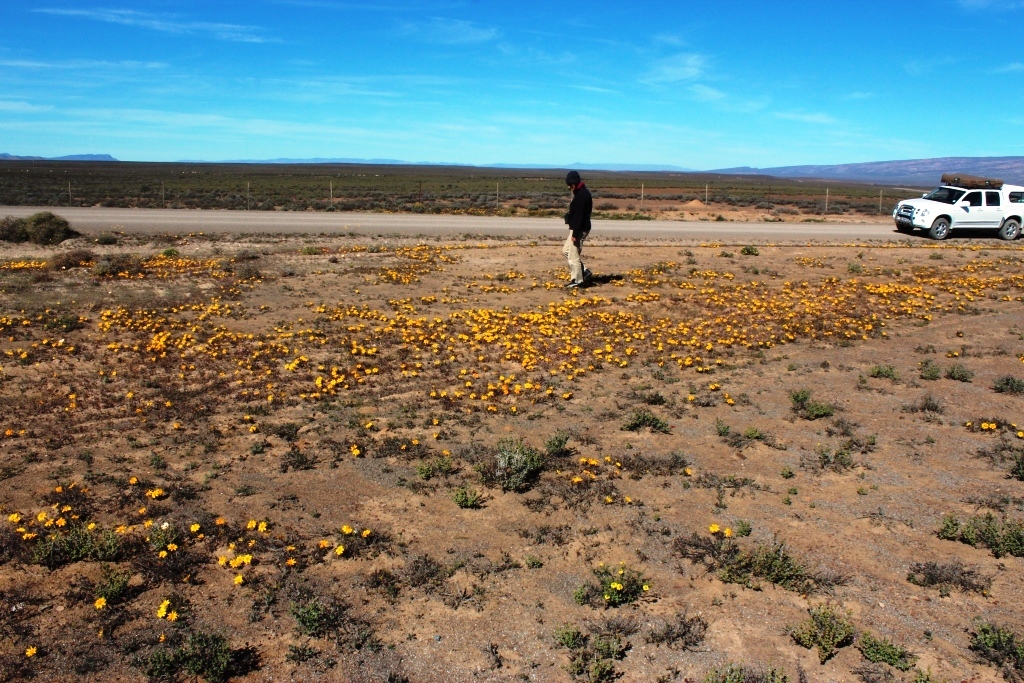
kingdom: Plantae
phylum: Tracheophyta
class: Magnoliopsida
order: Asterales
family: Asteraceae
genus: Gazania
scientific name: Gazania lichtensteinii
